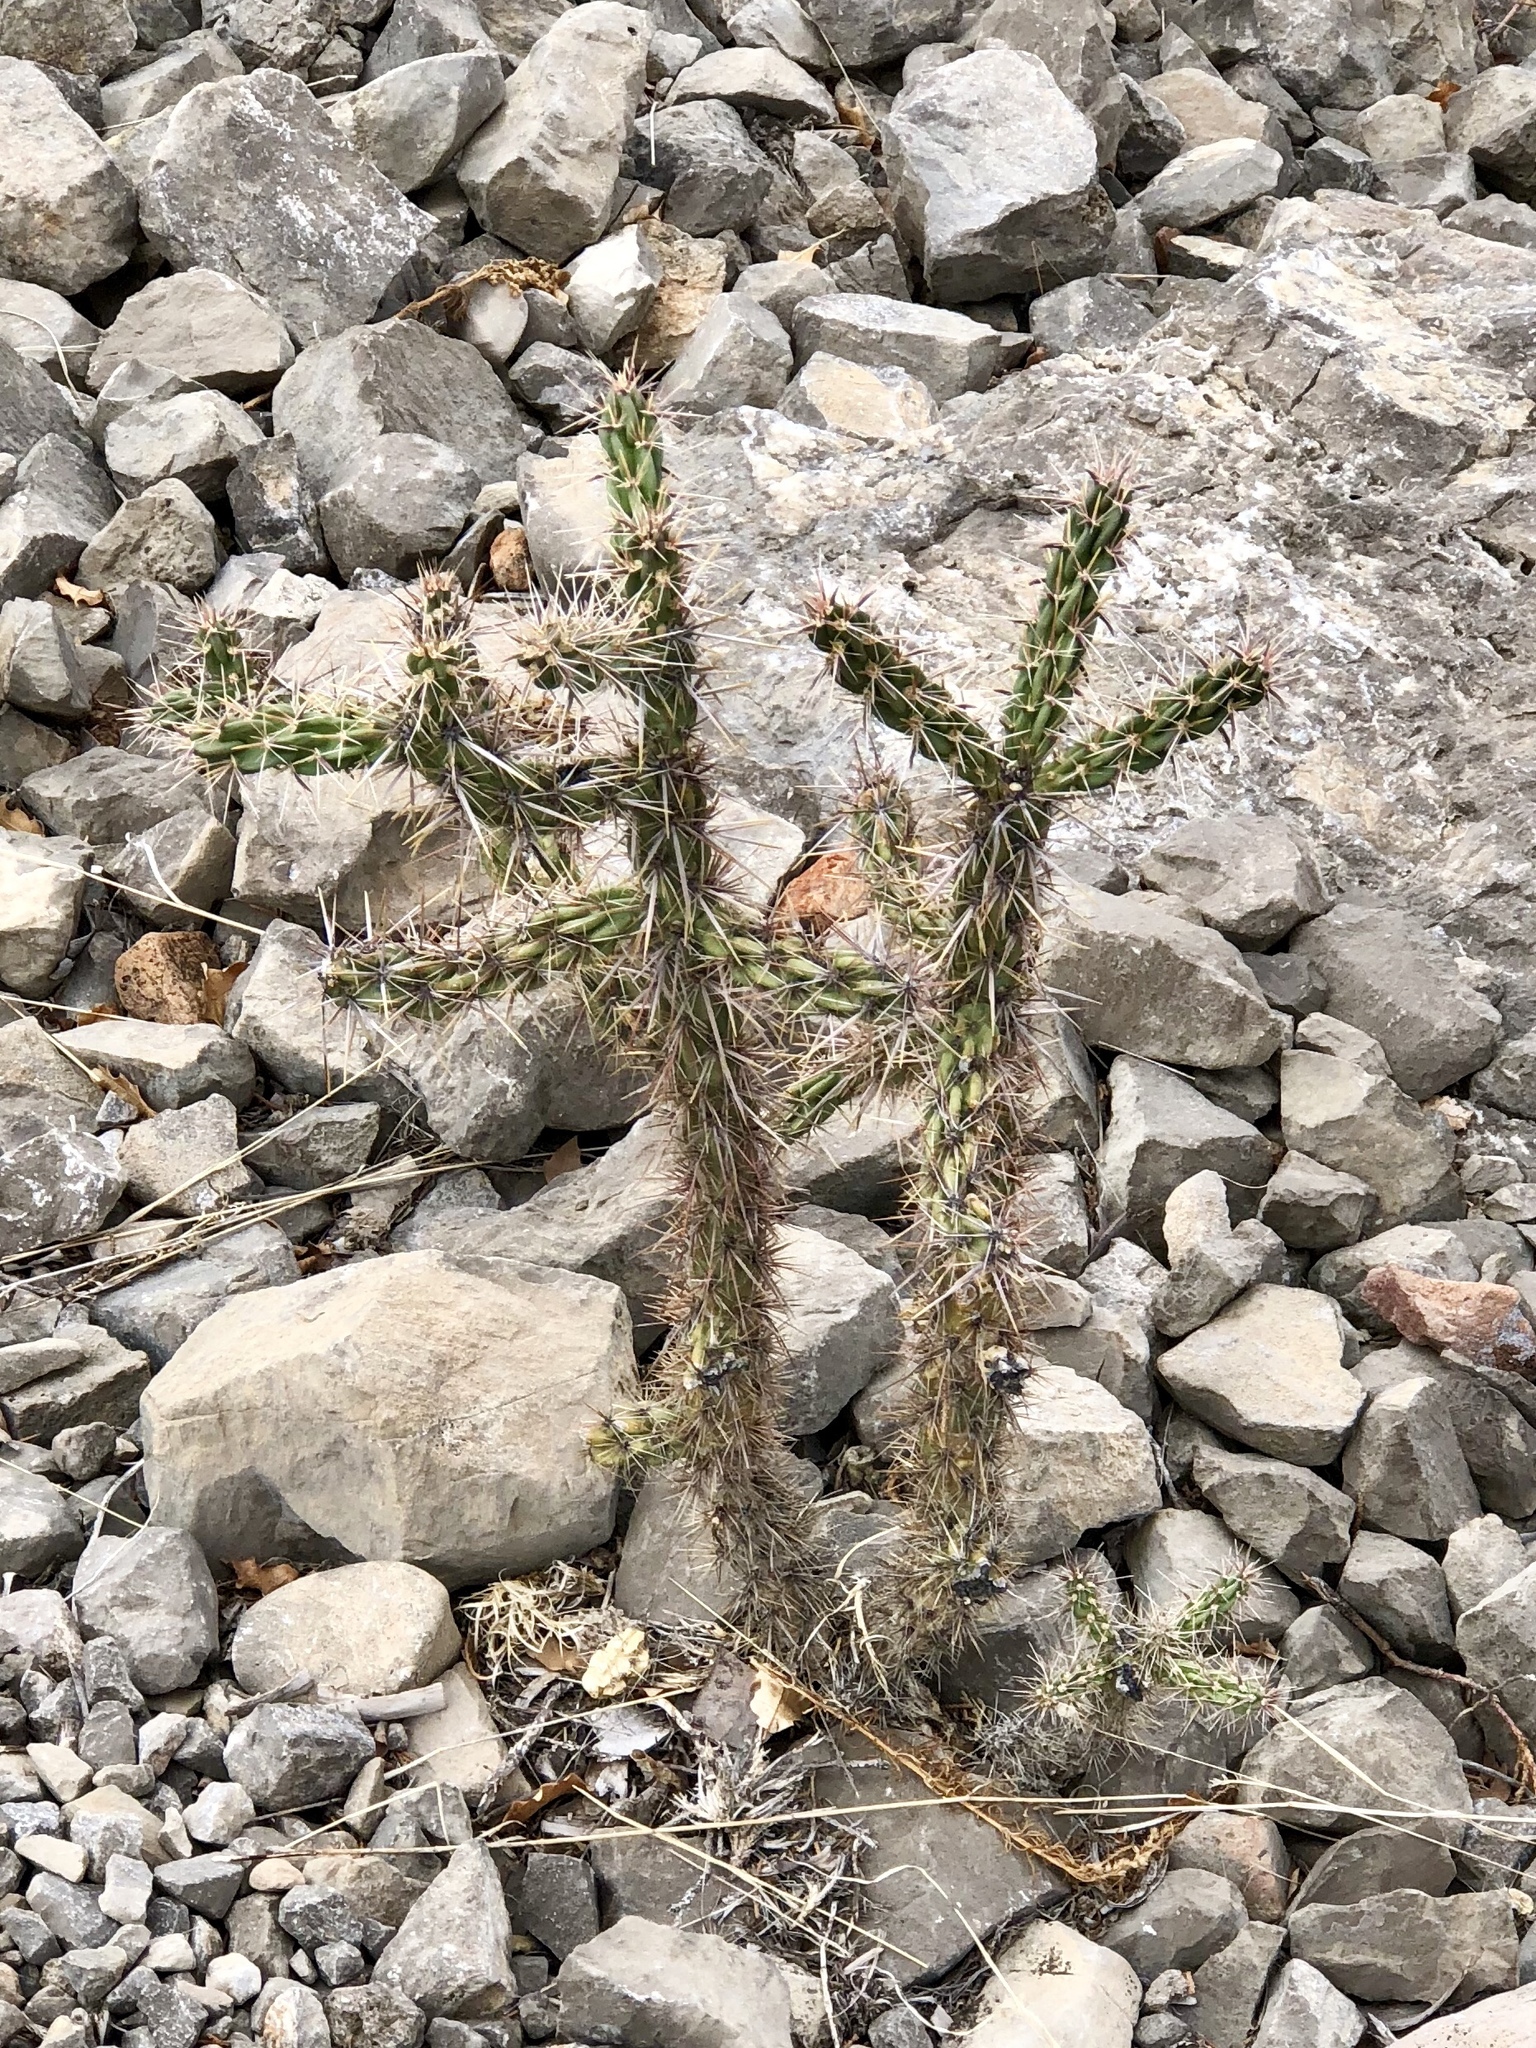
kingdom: Plantae
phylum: Tracheophyta
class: Magnoliopsida
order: Caryophyllales
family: Cactaceae
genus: Cylindropuntia
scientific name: Cylindropuntia imbricata
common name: Candelabrum cactus
